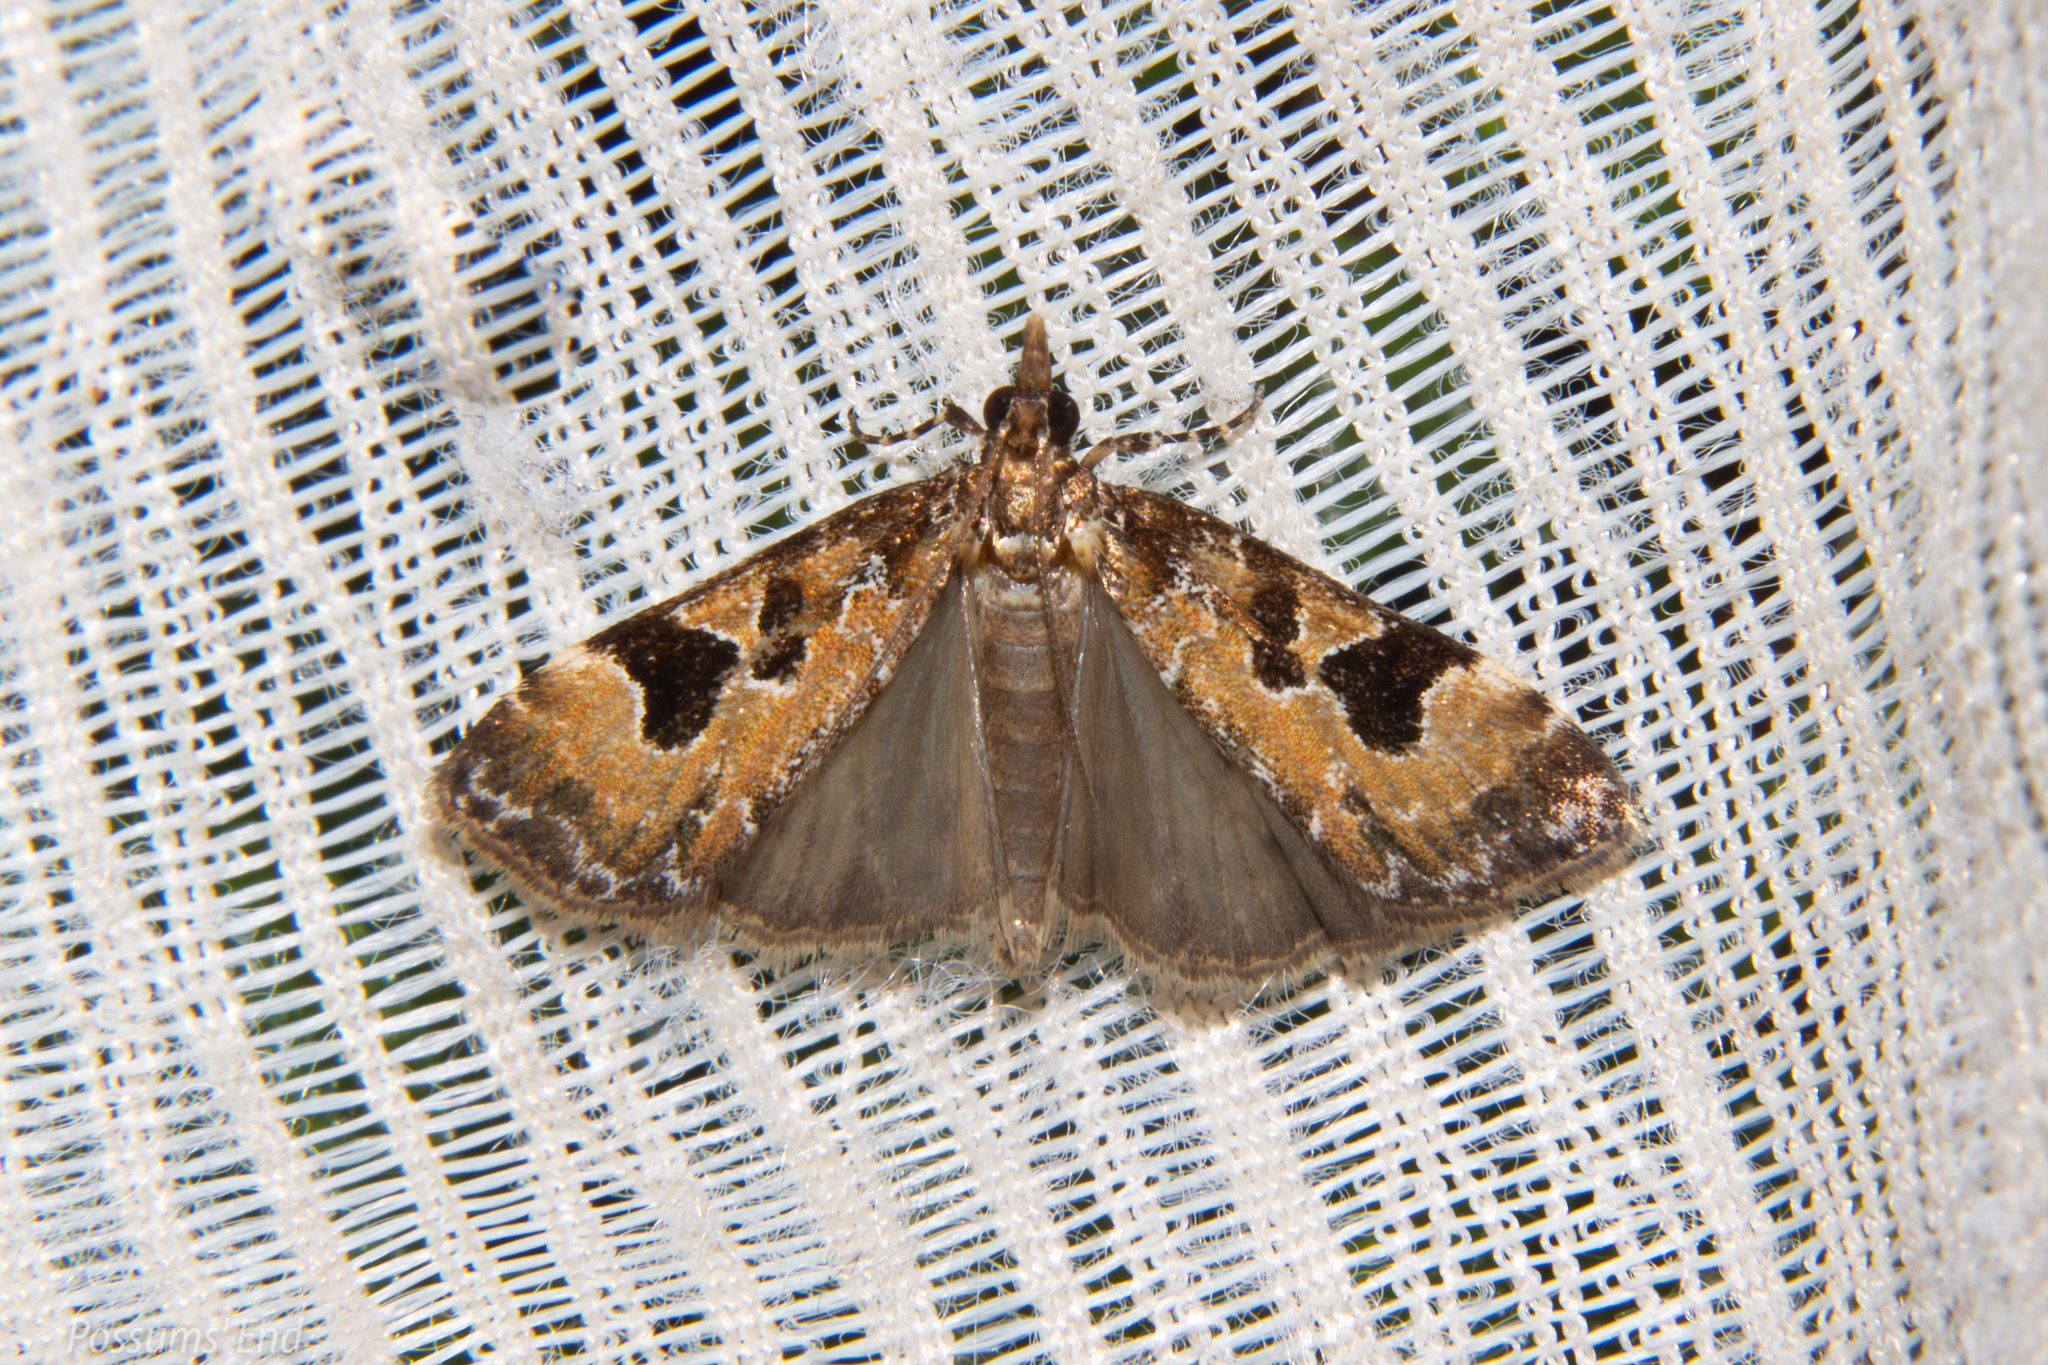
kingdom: Animalia
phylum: Arthropoda
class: Insecta
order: Lepidoptera
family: Crambidae
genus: Scoparia
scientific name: Scoparia ustimacula
